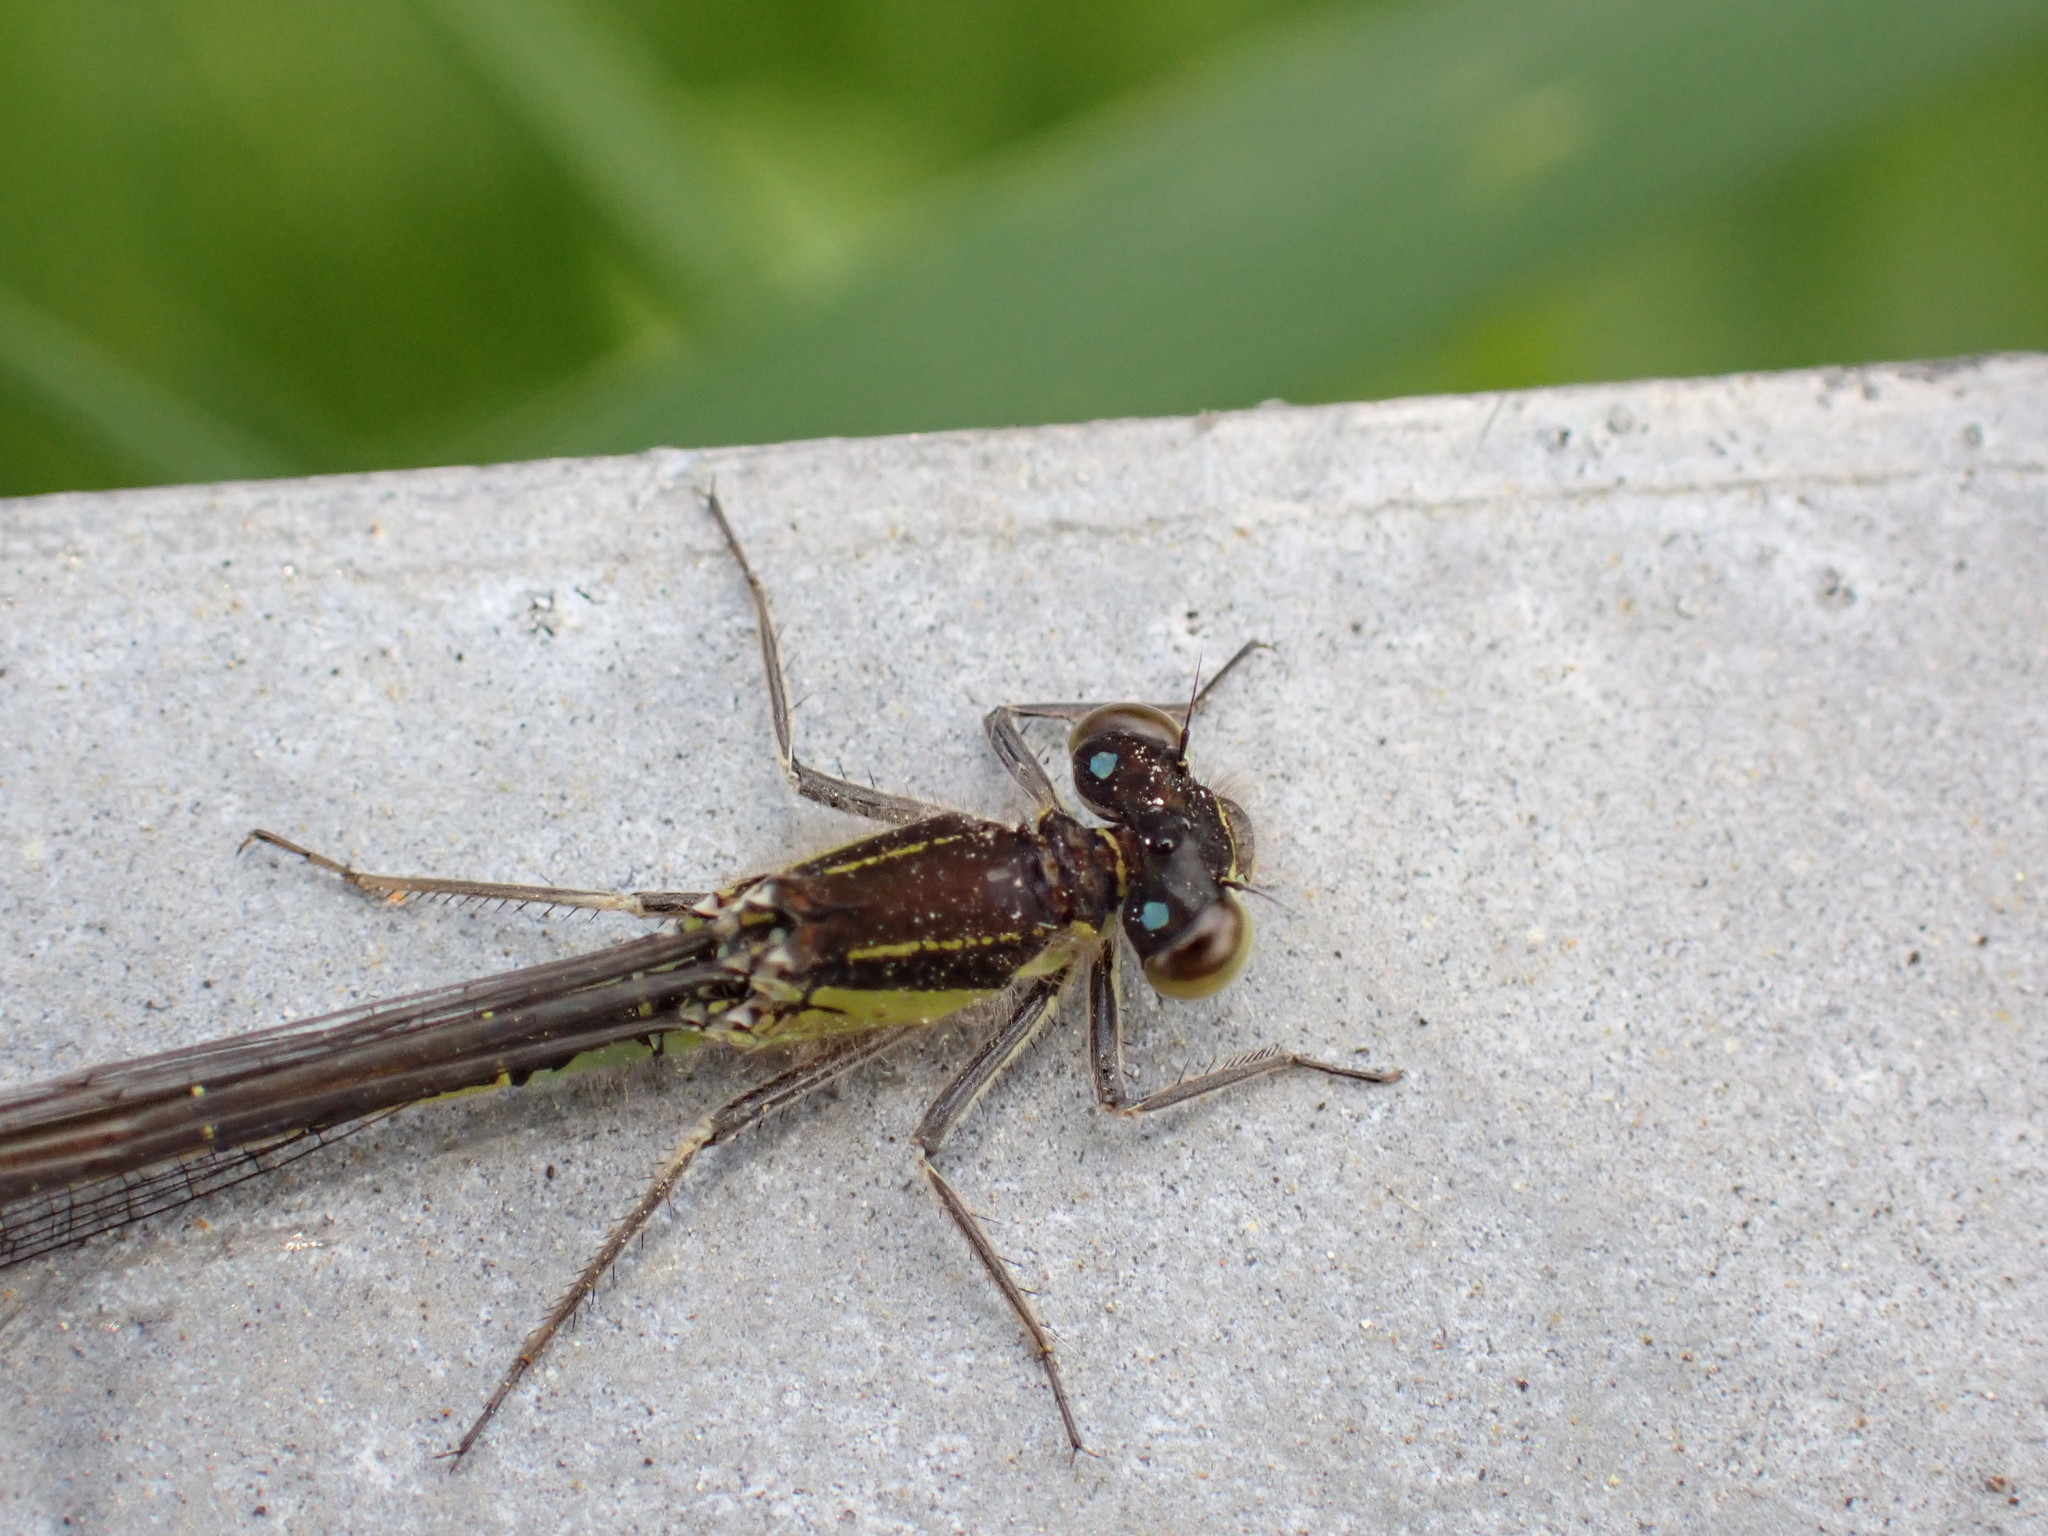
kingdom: Animalia
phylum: Arthropoda
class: Insecta
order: Odonata
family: Coenagrionidae
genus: Ischnura
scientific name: Ischnura elegans
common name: Blue-tailed damselfly
